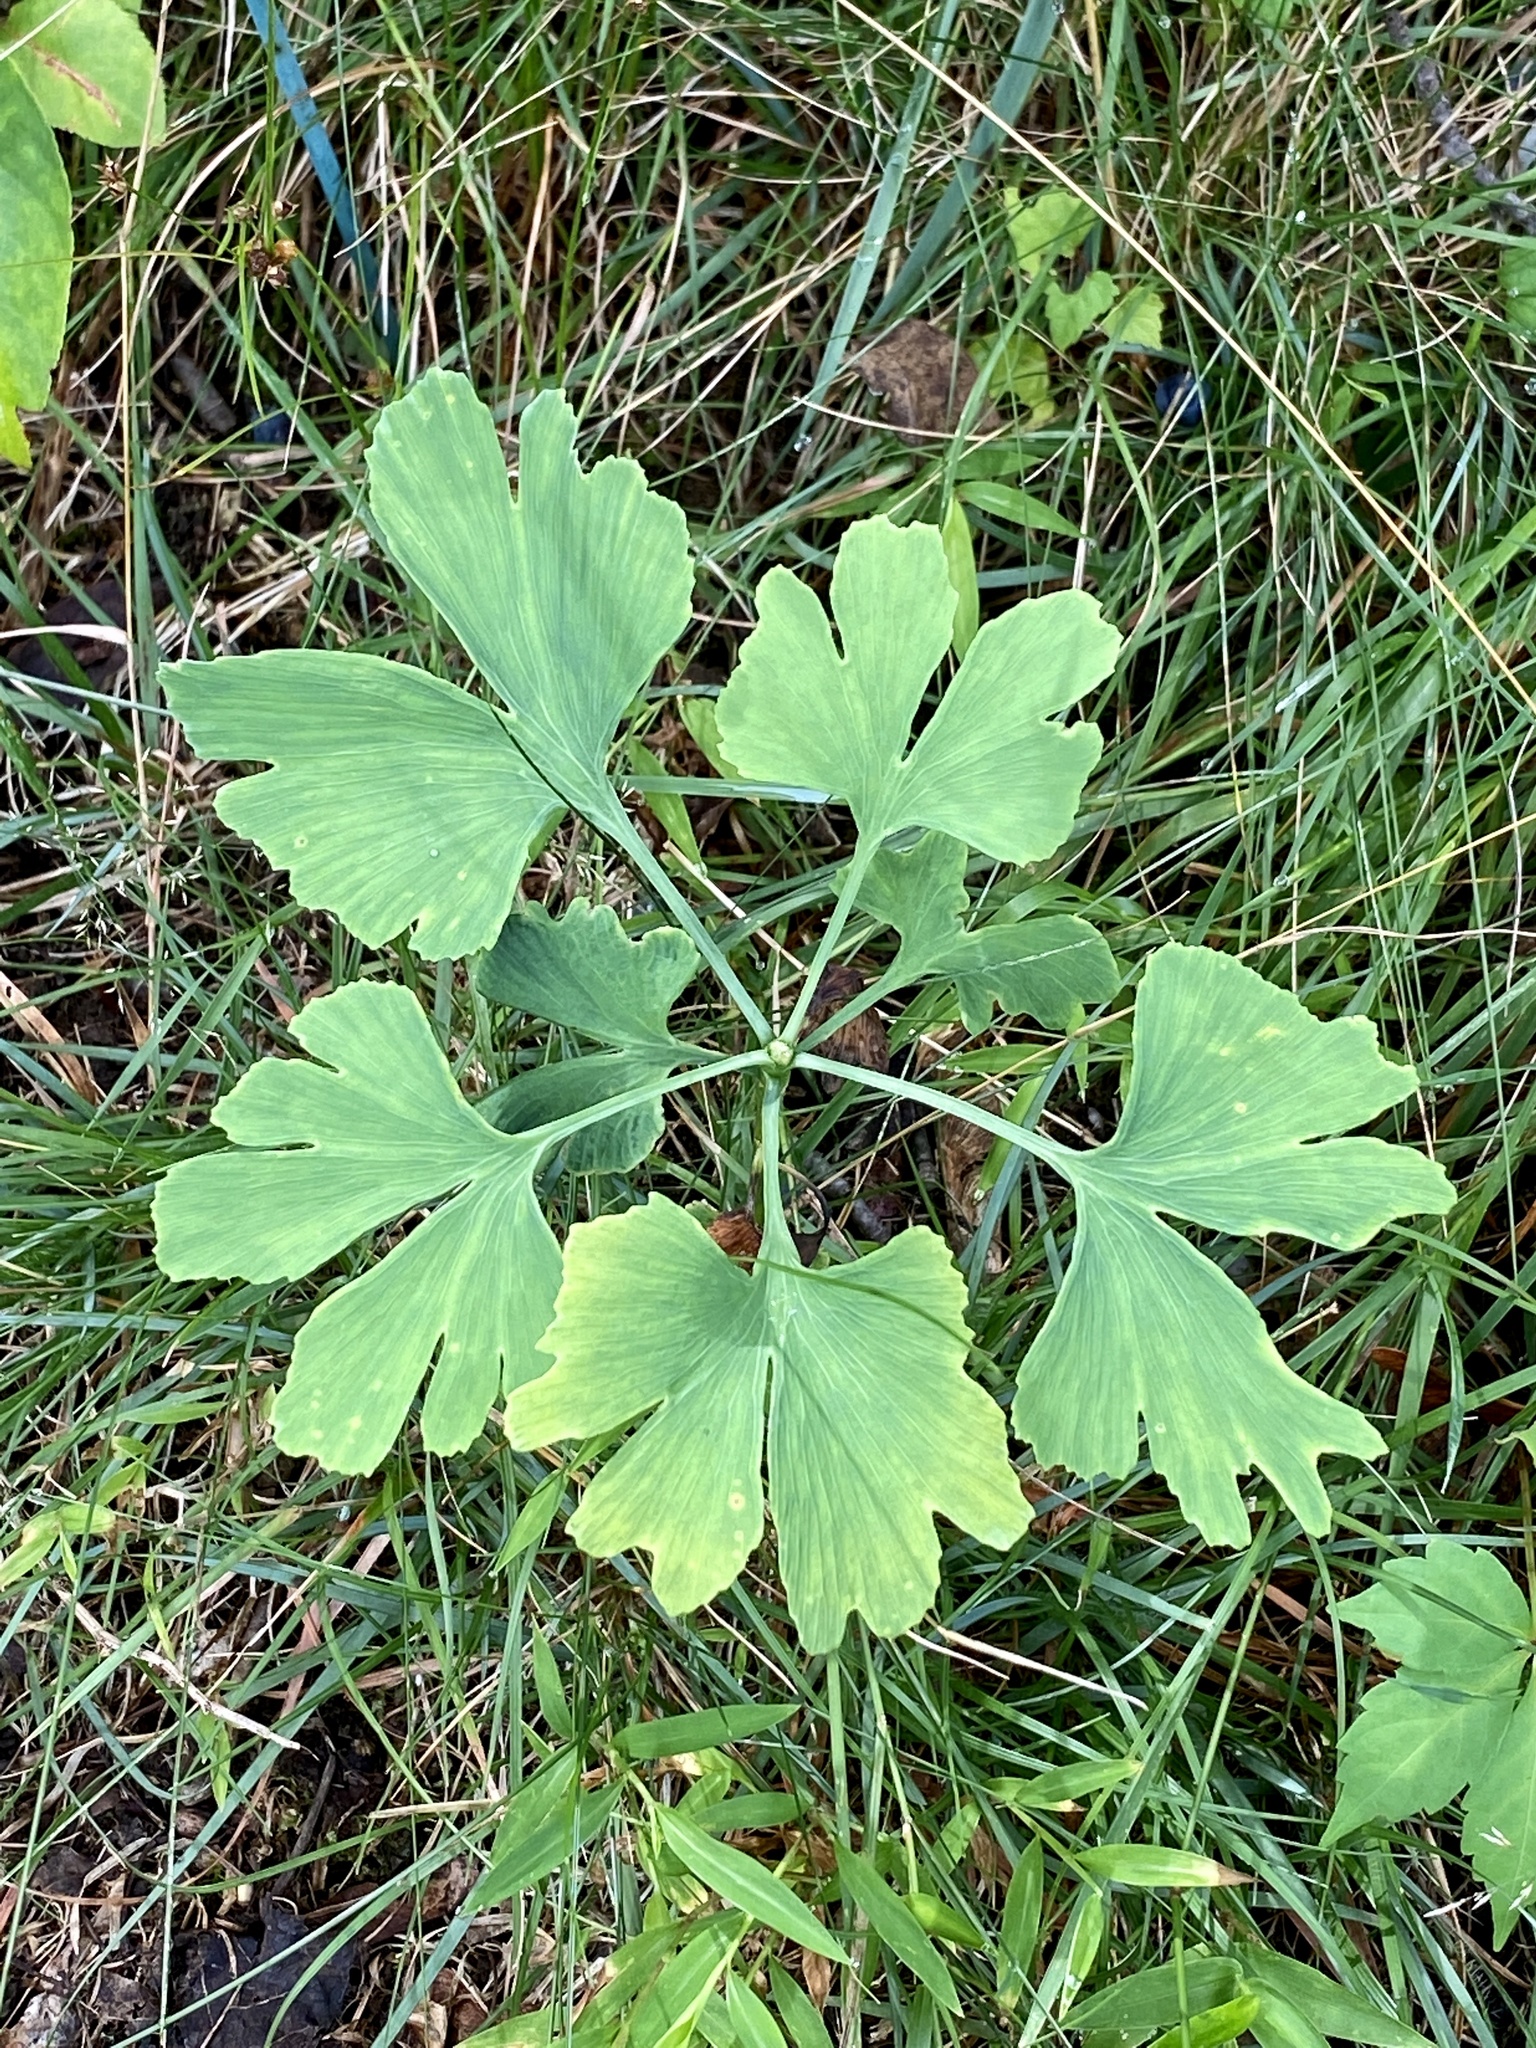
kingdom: Plantae
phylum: Tracheophyta
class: Ginkgoopsida
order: Ginkgoales
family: Ginkgoaceae
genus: Ginkgo
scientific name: Ginkgo biloba
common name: Ginkgo
